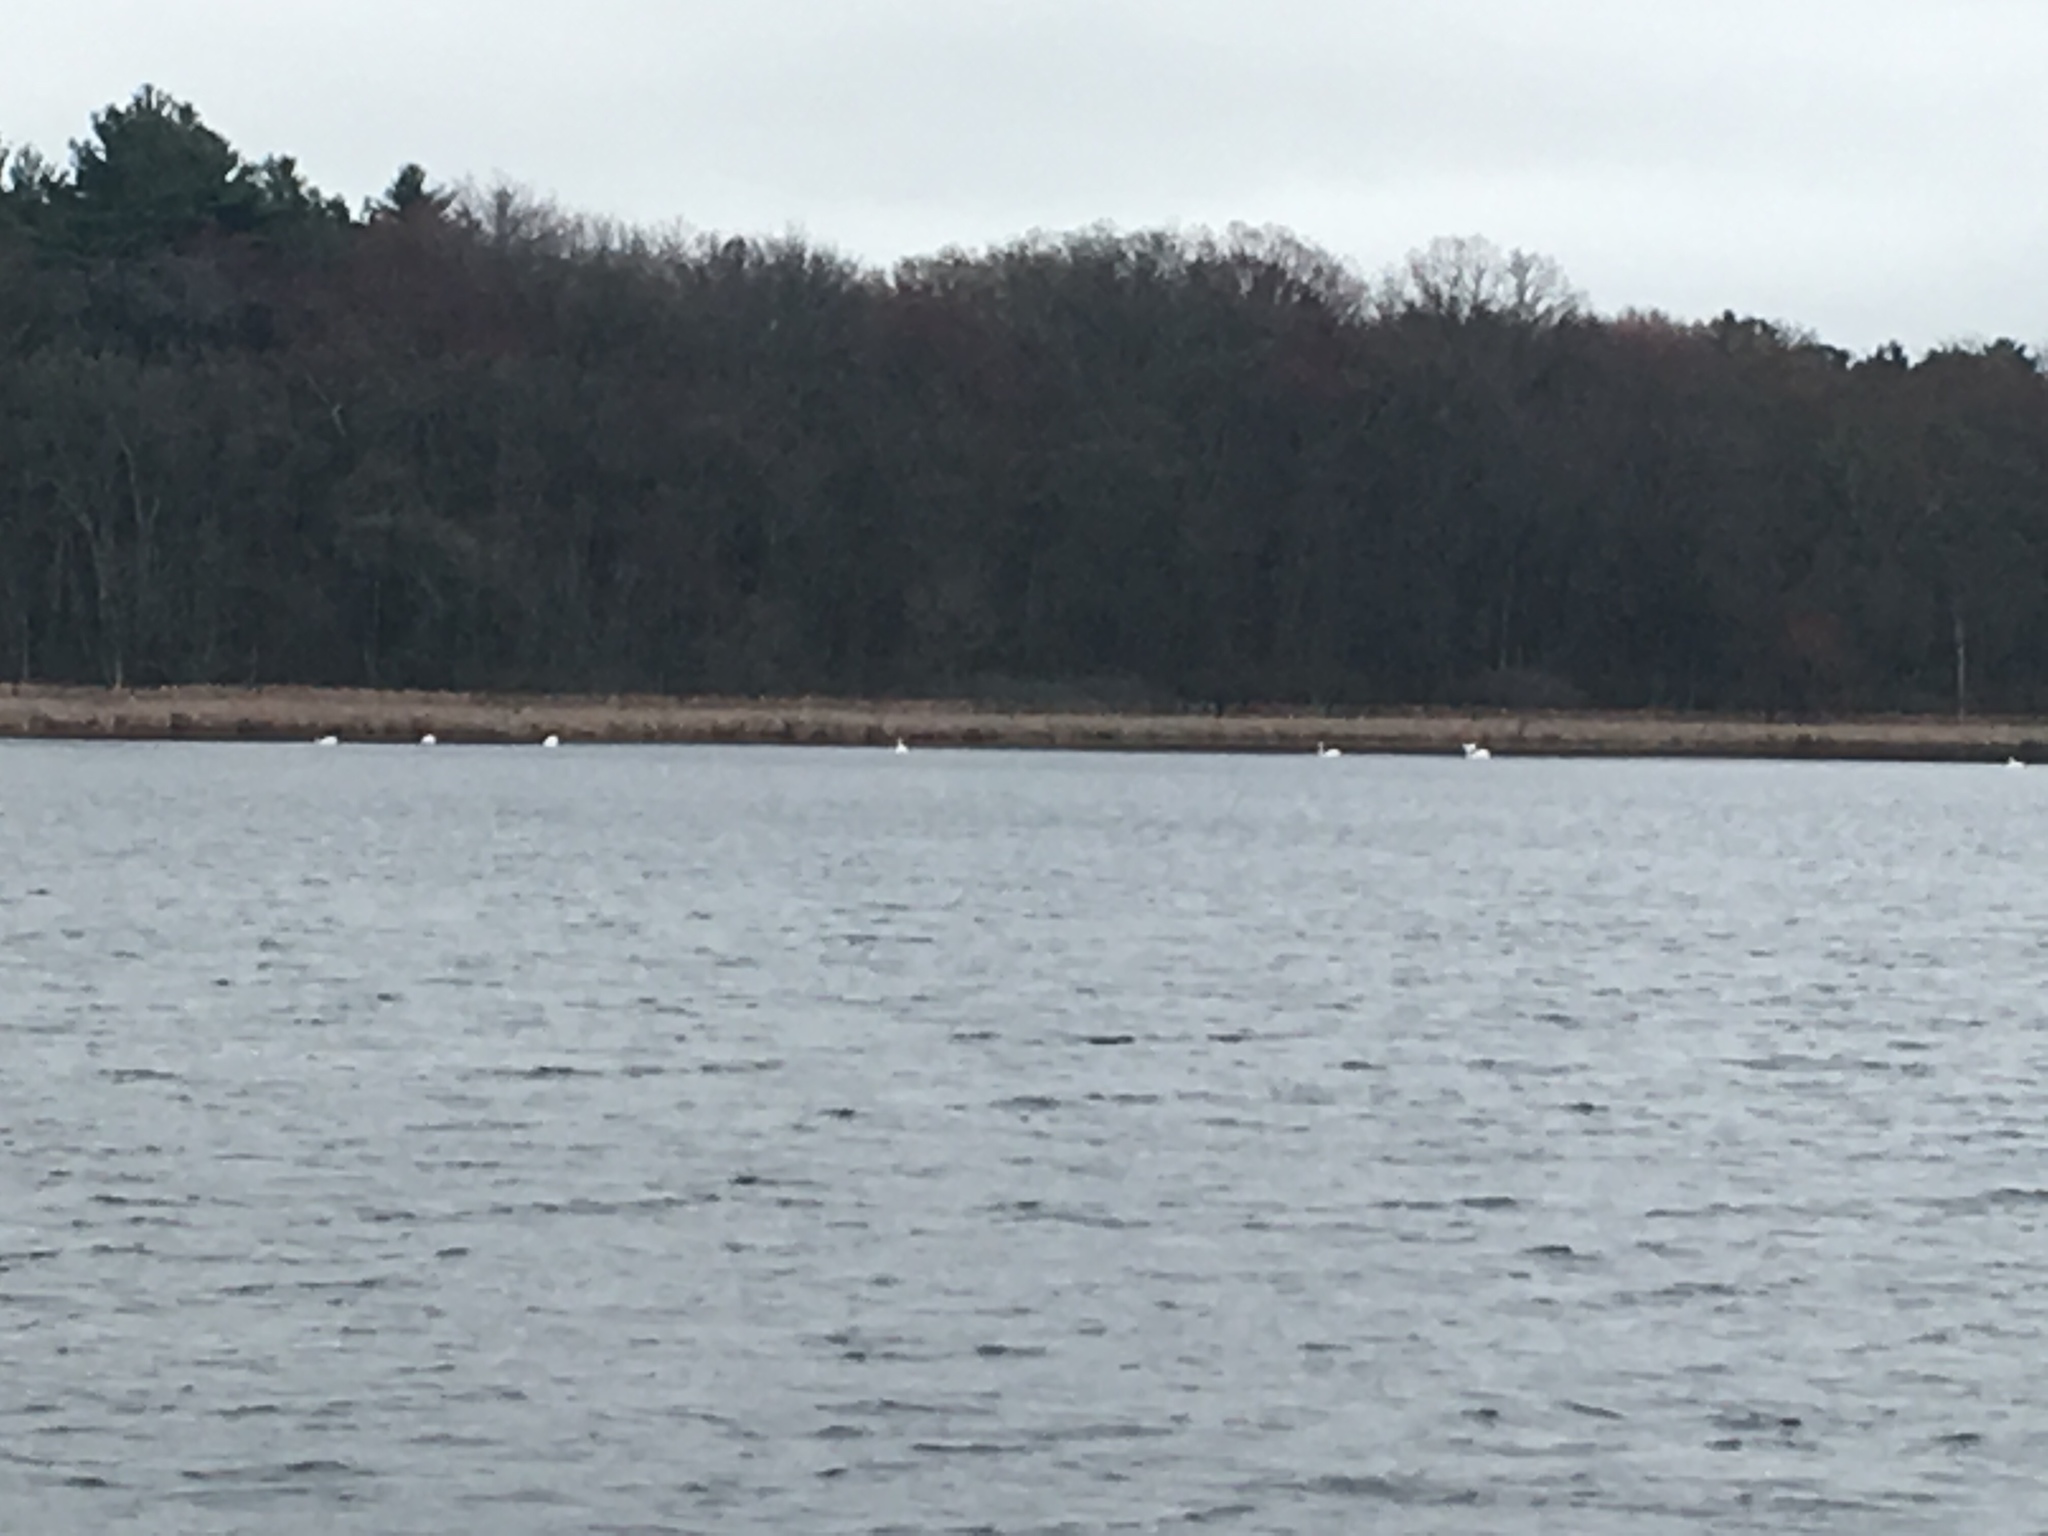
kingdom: Animalia
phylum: Chordata
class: Aves
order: Anseriformes
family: Anatidae
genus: Cygnus
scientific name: Cygnus olor
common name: Mute swan
